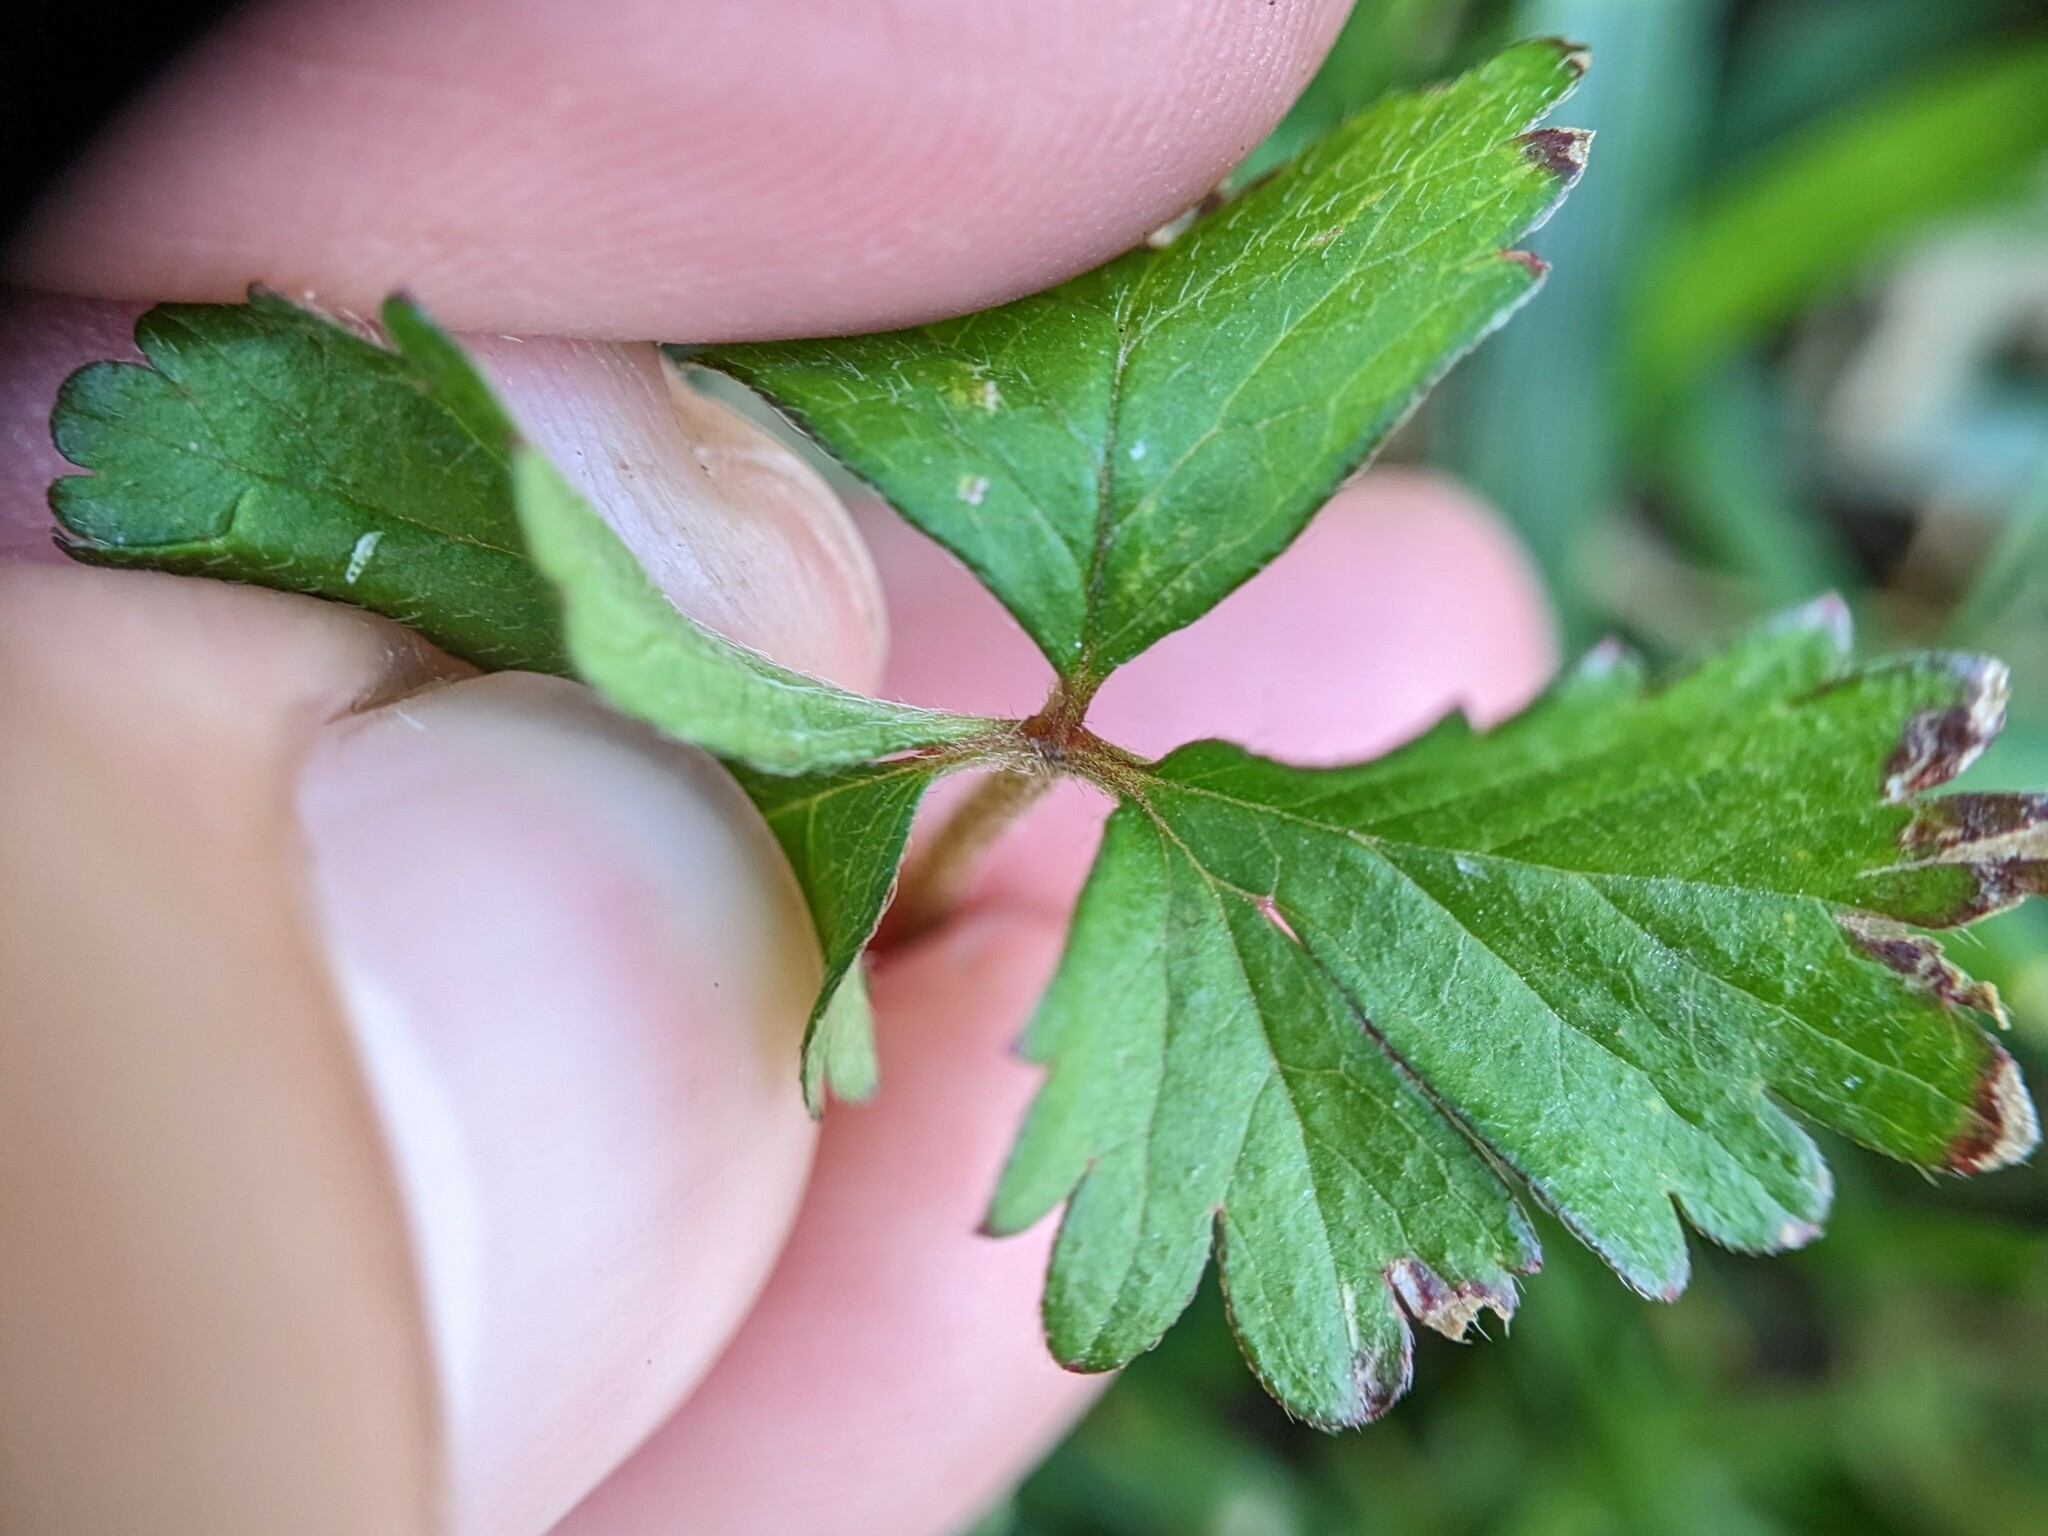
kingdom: Plantae
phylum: Tracheophyta
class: Magnoliopsida
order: Rosales
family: Rosaceae
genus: Potentilla
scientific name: Potentilla indica
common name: Yellow-flowered strawberry
